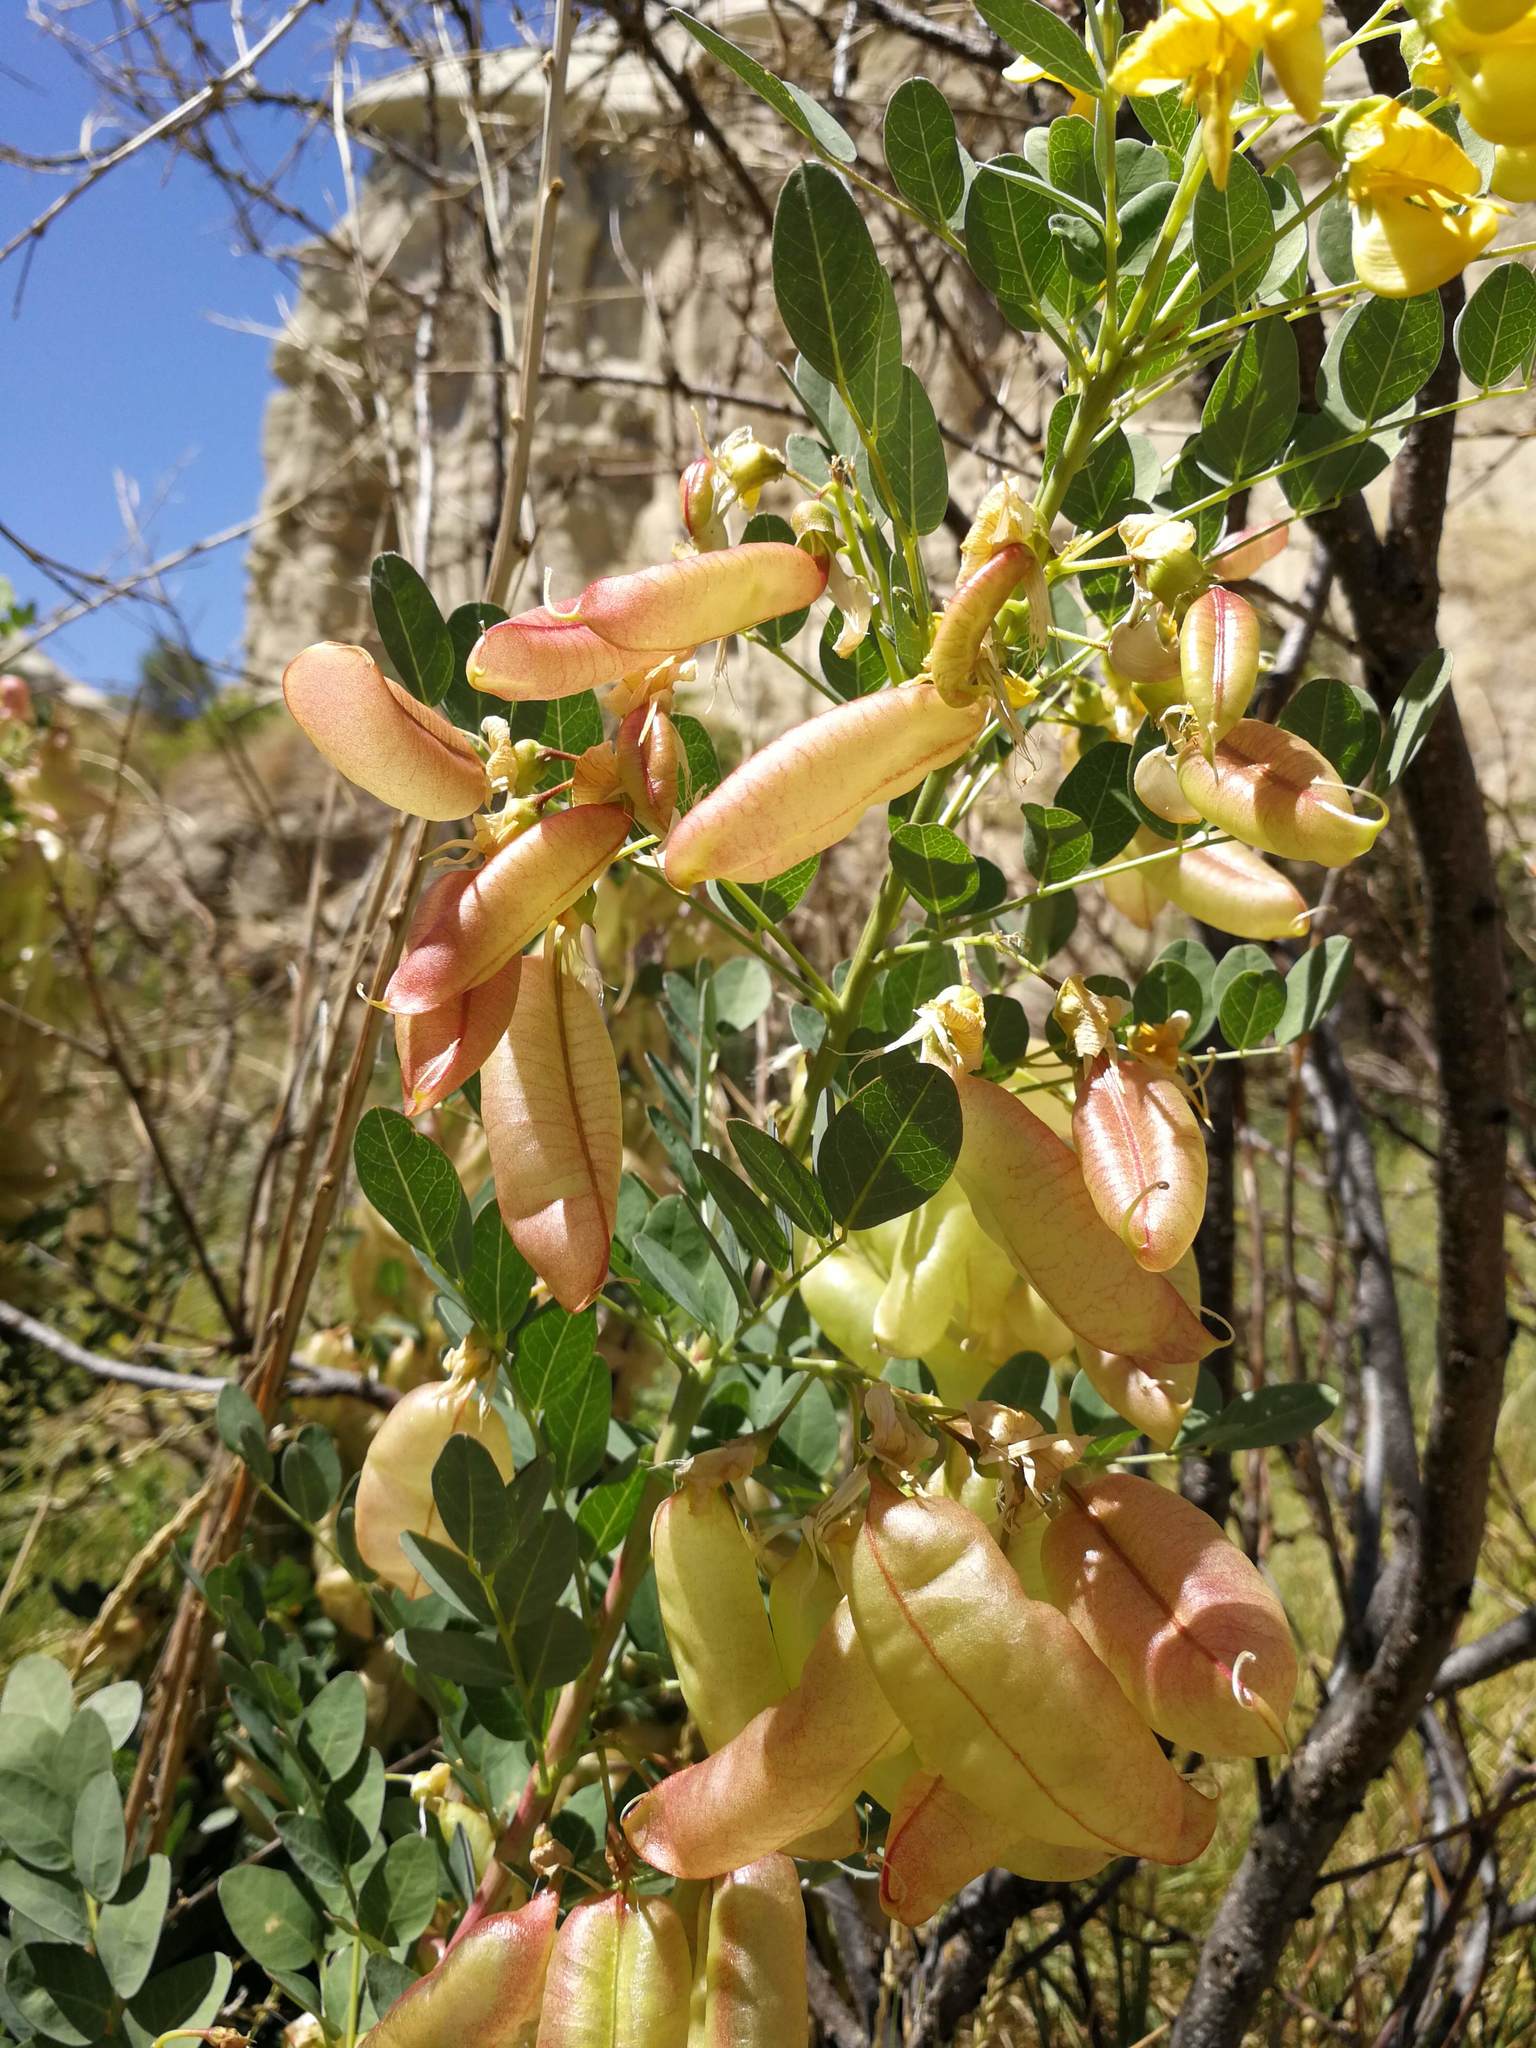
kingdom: Plantae
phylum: Tracheophyta
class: Magnoliopsida
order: Fabales
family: Fabaceae
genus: Colutea
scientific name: Colutea cilicica
